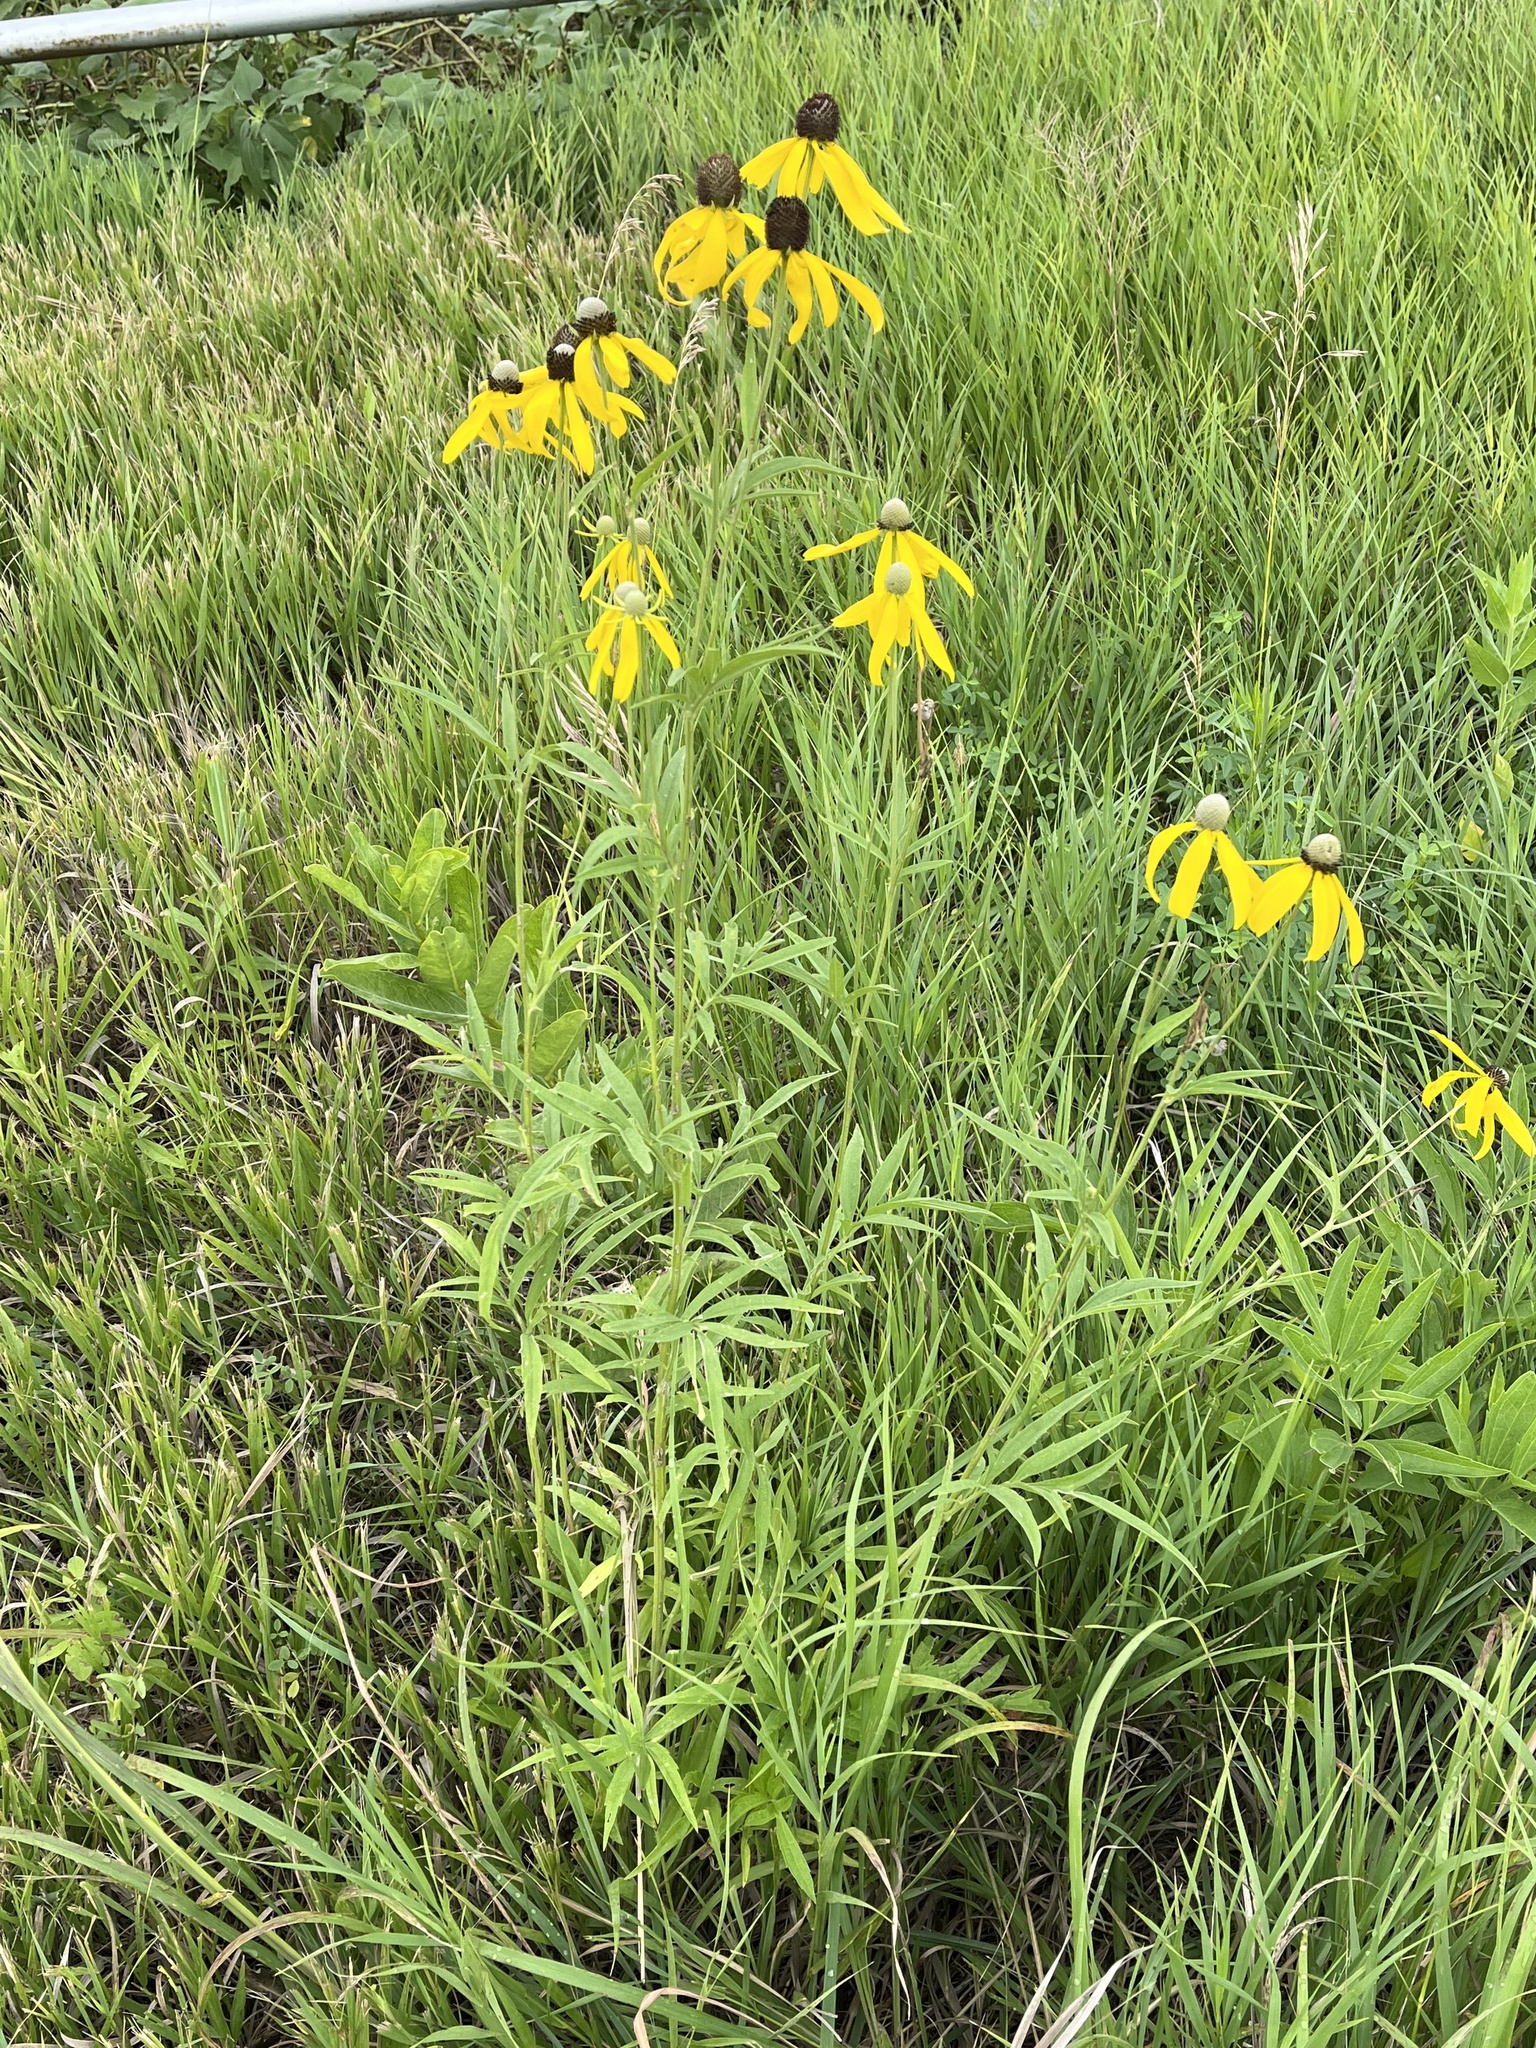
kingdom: Plantae
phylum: Tracheophyta
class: Magnoliopsida
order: Asterales
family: Asteraceae
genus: Ratibida
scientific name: Ratibida pinnata
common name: Drooping prairie-coneflower
